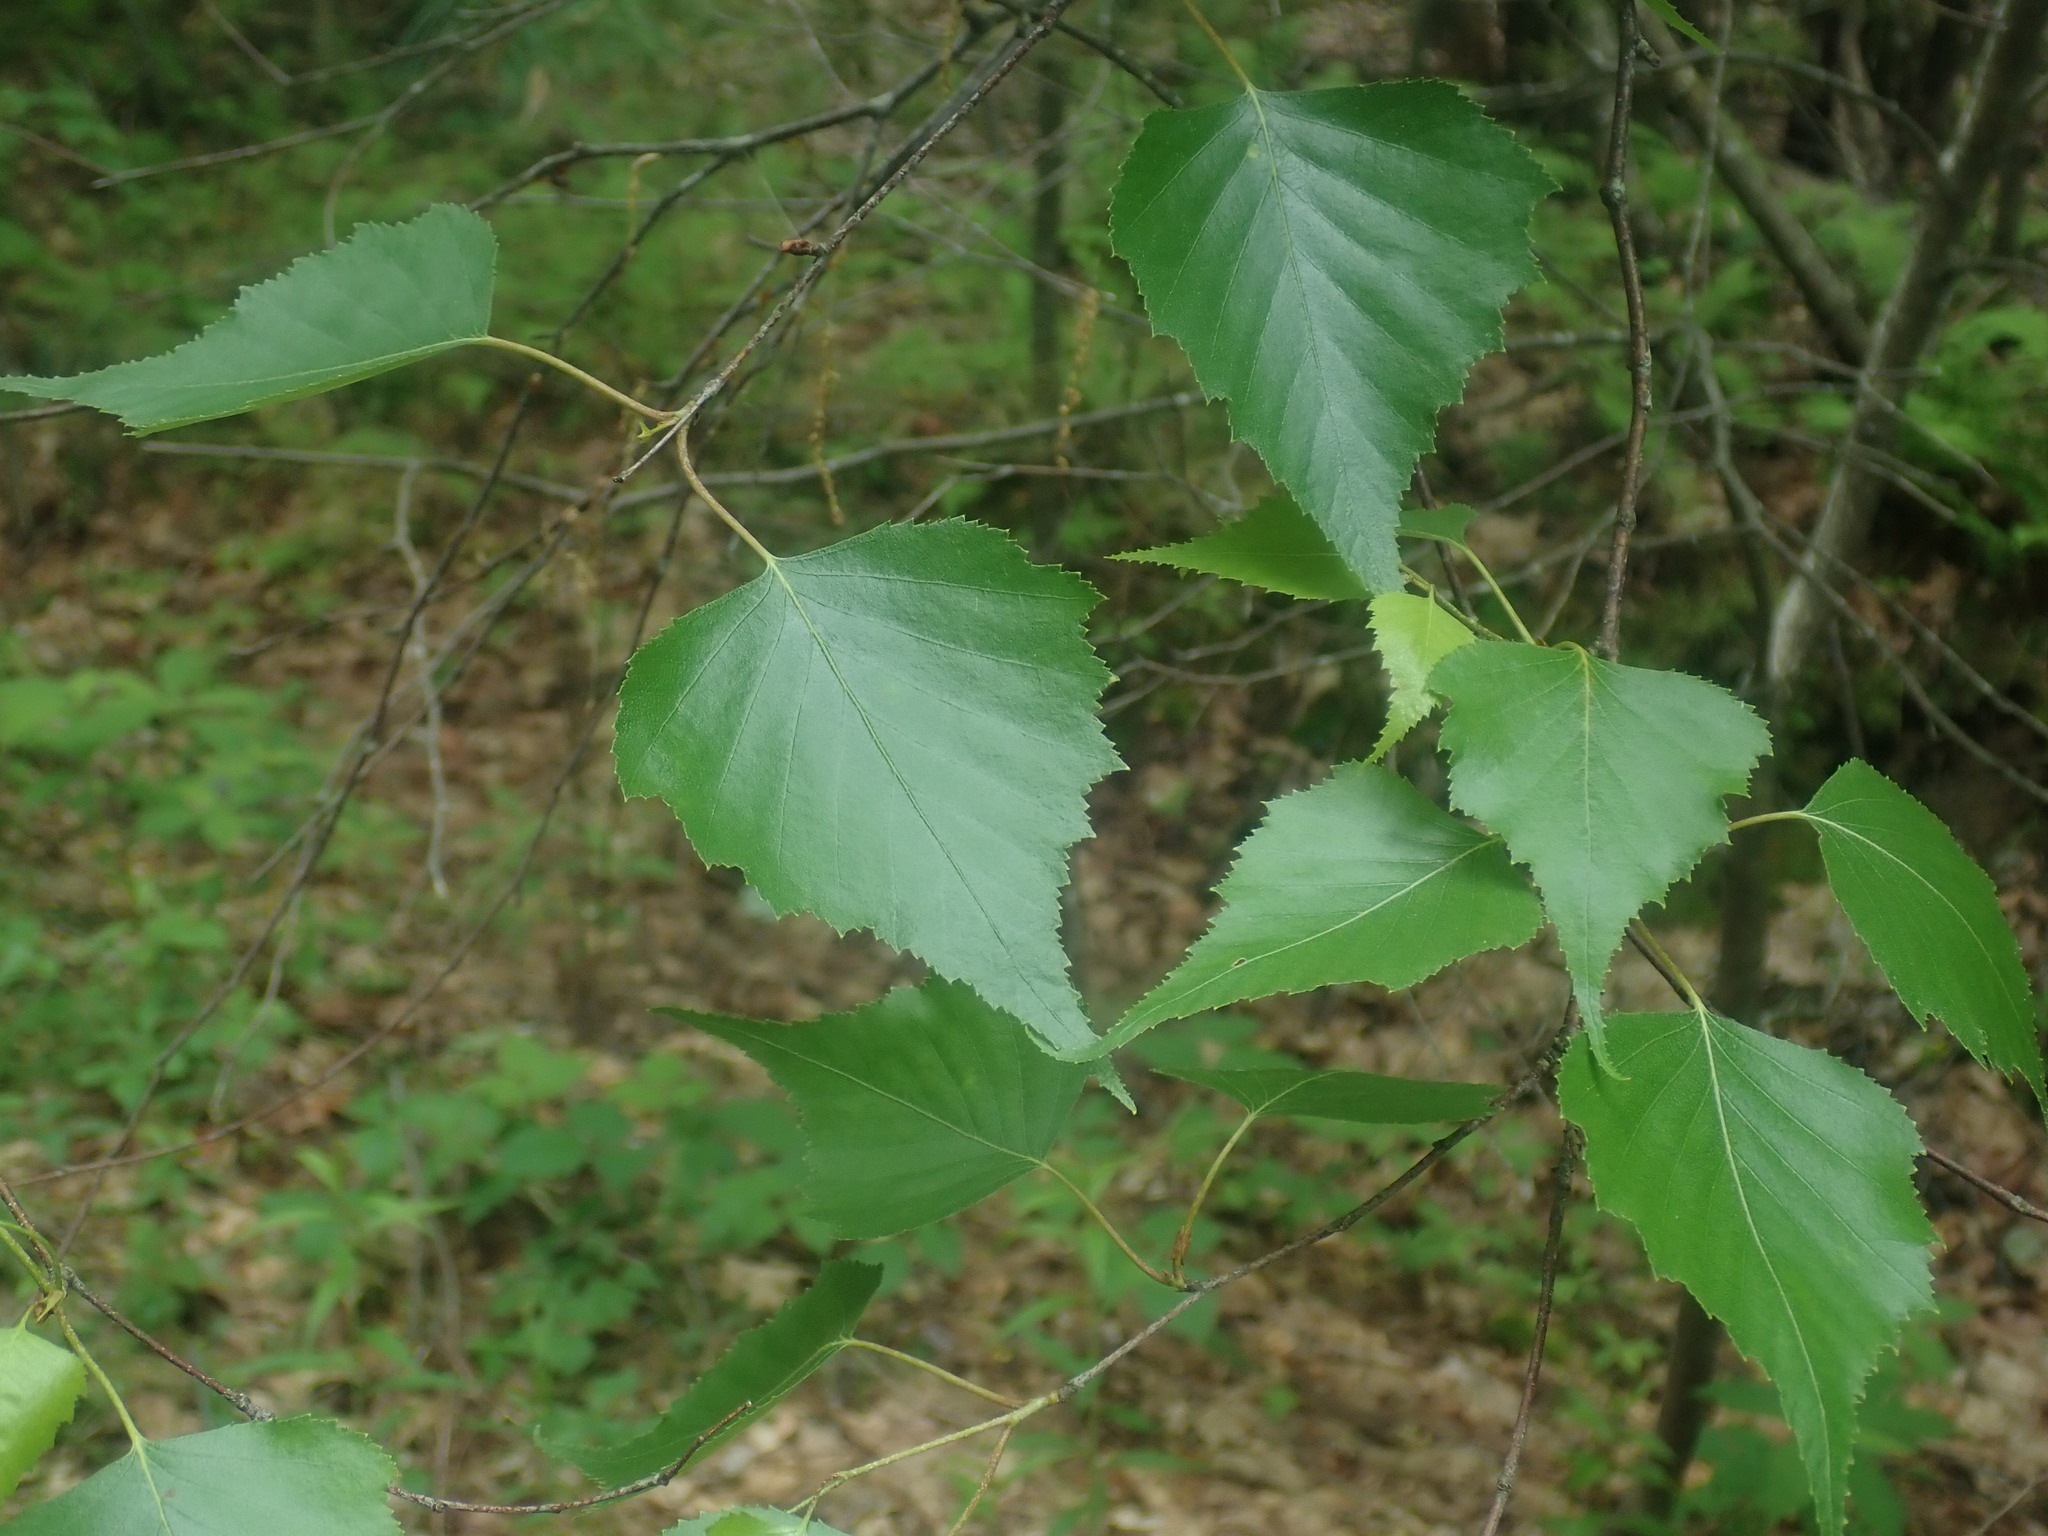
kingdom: Plantae
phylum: Tracheophyta
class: Magnoliopsida
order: Fagales
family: Betulaceae
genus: Betula
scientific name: Betula populifolia
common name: Fire birch
